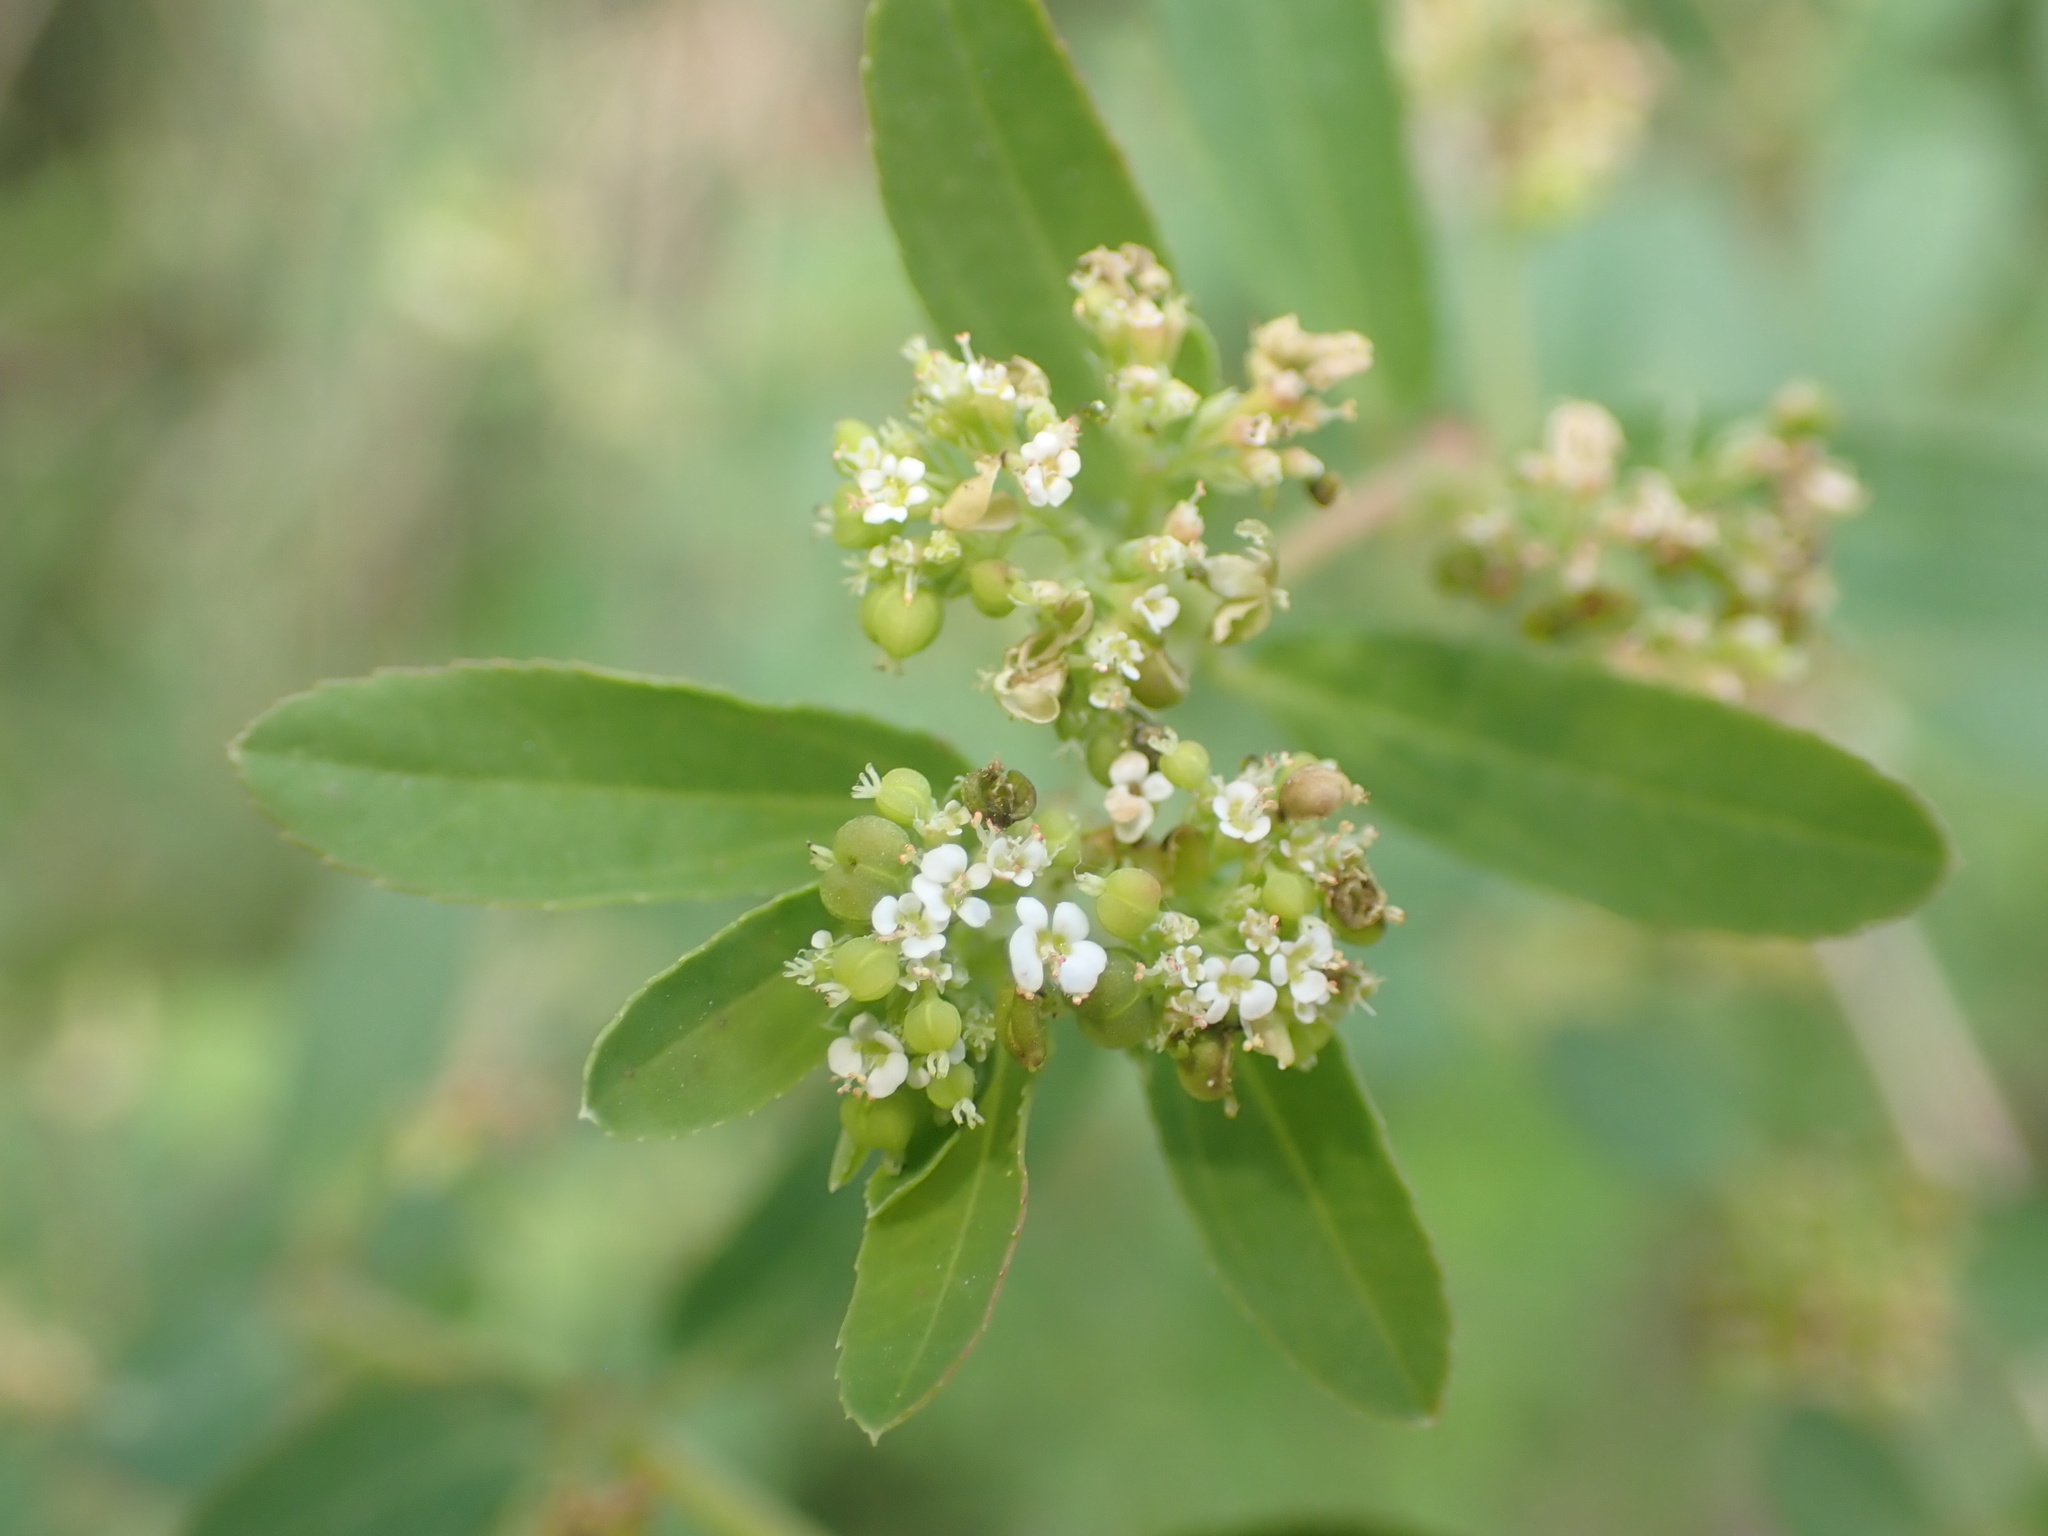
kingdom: Plantae
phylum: Tracheophyta
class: Magnoliopsida
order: Malpighiales
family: Euphorbiaceae
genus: Euphorbia
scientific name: Euphorbia hypericifolia
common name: Graceful sandmat
